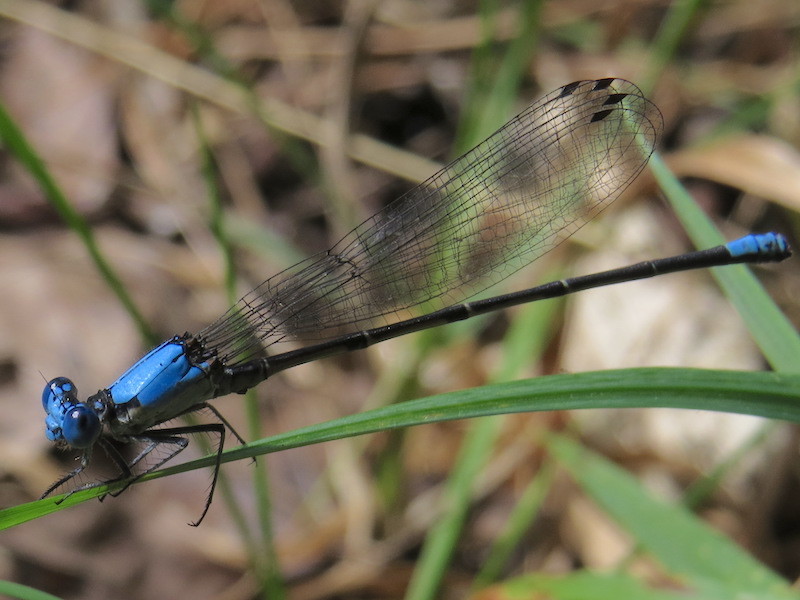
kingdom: Animalia
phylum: Arthropoda
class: Insecta
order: Odonata
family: Coenagrionidae
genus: Argia
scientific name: Argia apicalis
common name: Blue-fronted dancer
